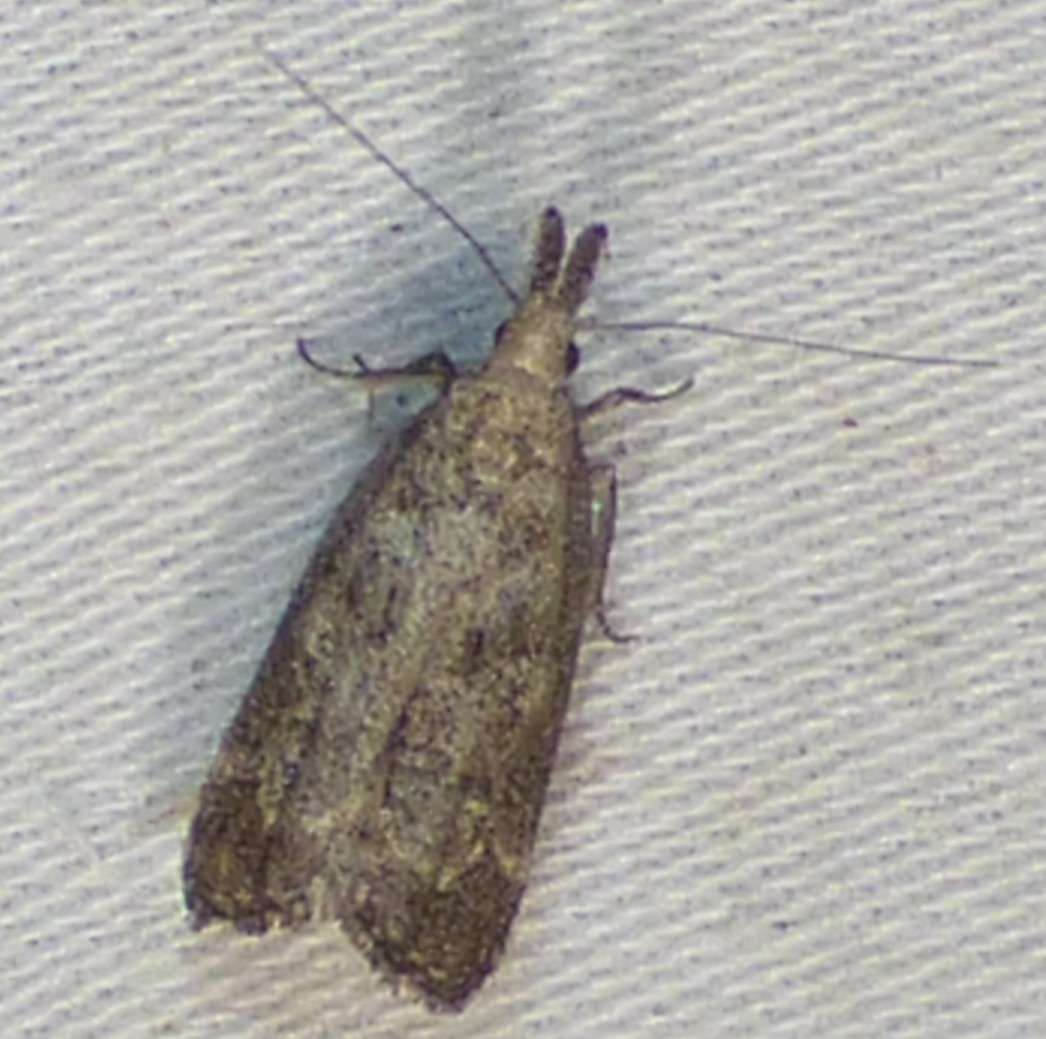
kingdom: Animalia
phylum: Arthropoda
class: Insecta
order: Lepidoptera
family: Gelechiidae
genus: Dichomeris
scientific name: Dichomeris inversella
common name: Inverse dichomeris moth
